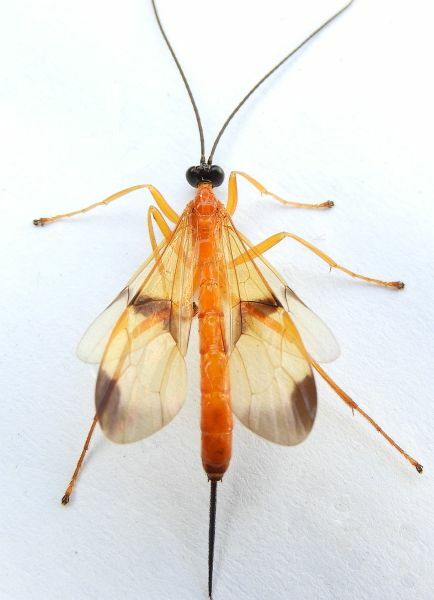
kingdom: Animalia
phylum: Arthropoda
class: Insecta
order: Hymenoptera
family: Ichneumonidae
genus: Acrotaphus
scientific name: Acrotaphus wiltii
